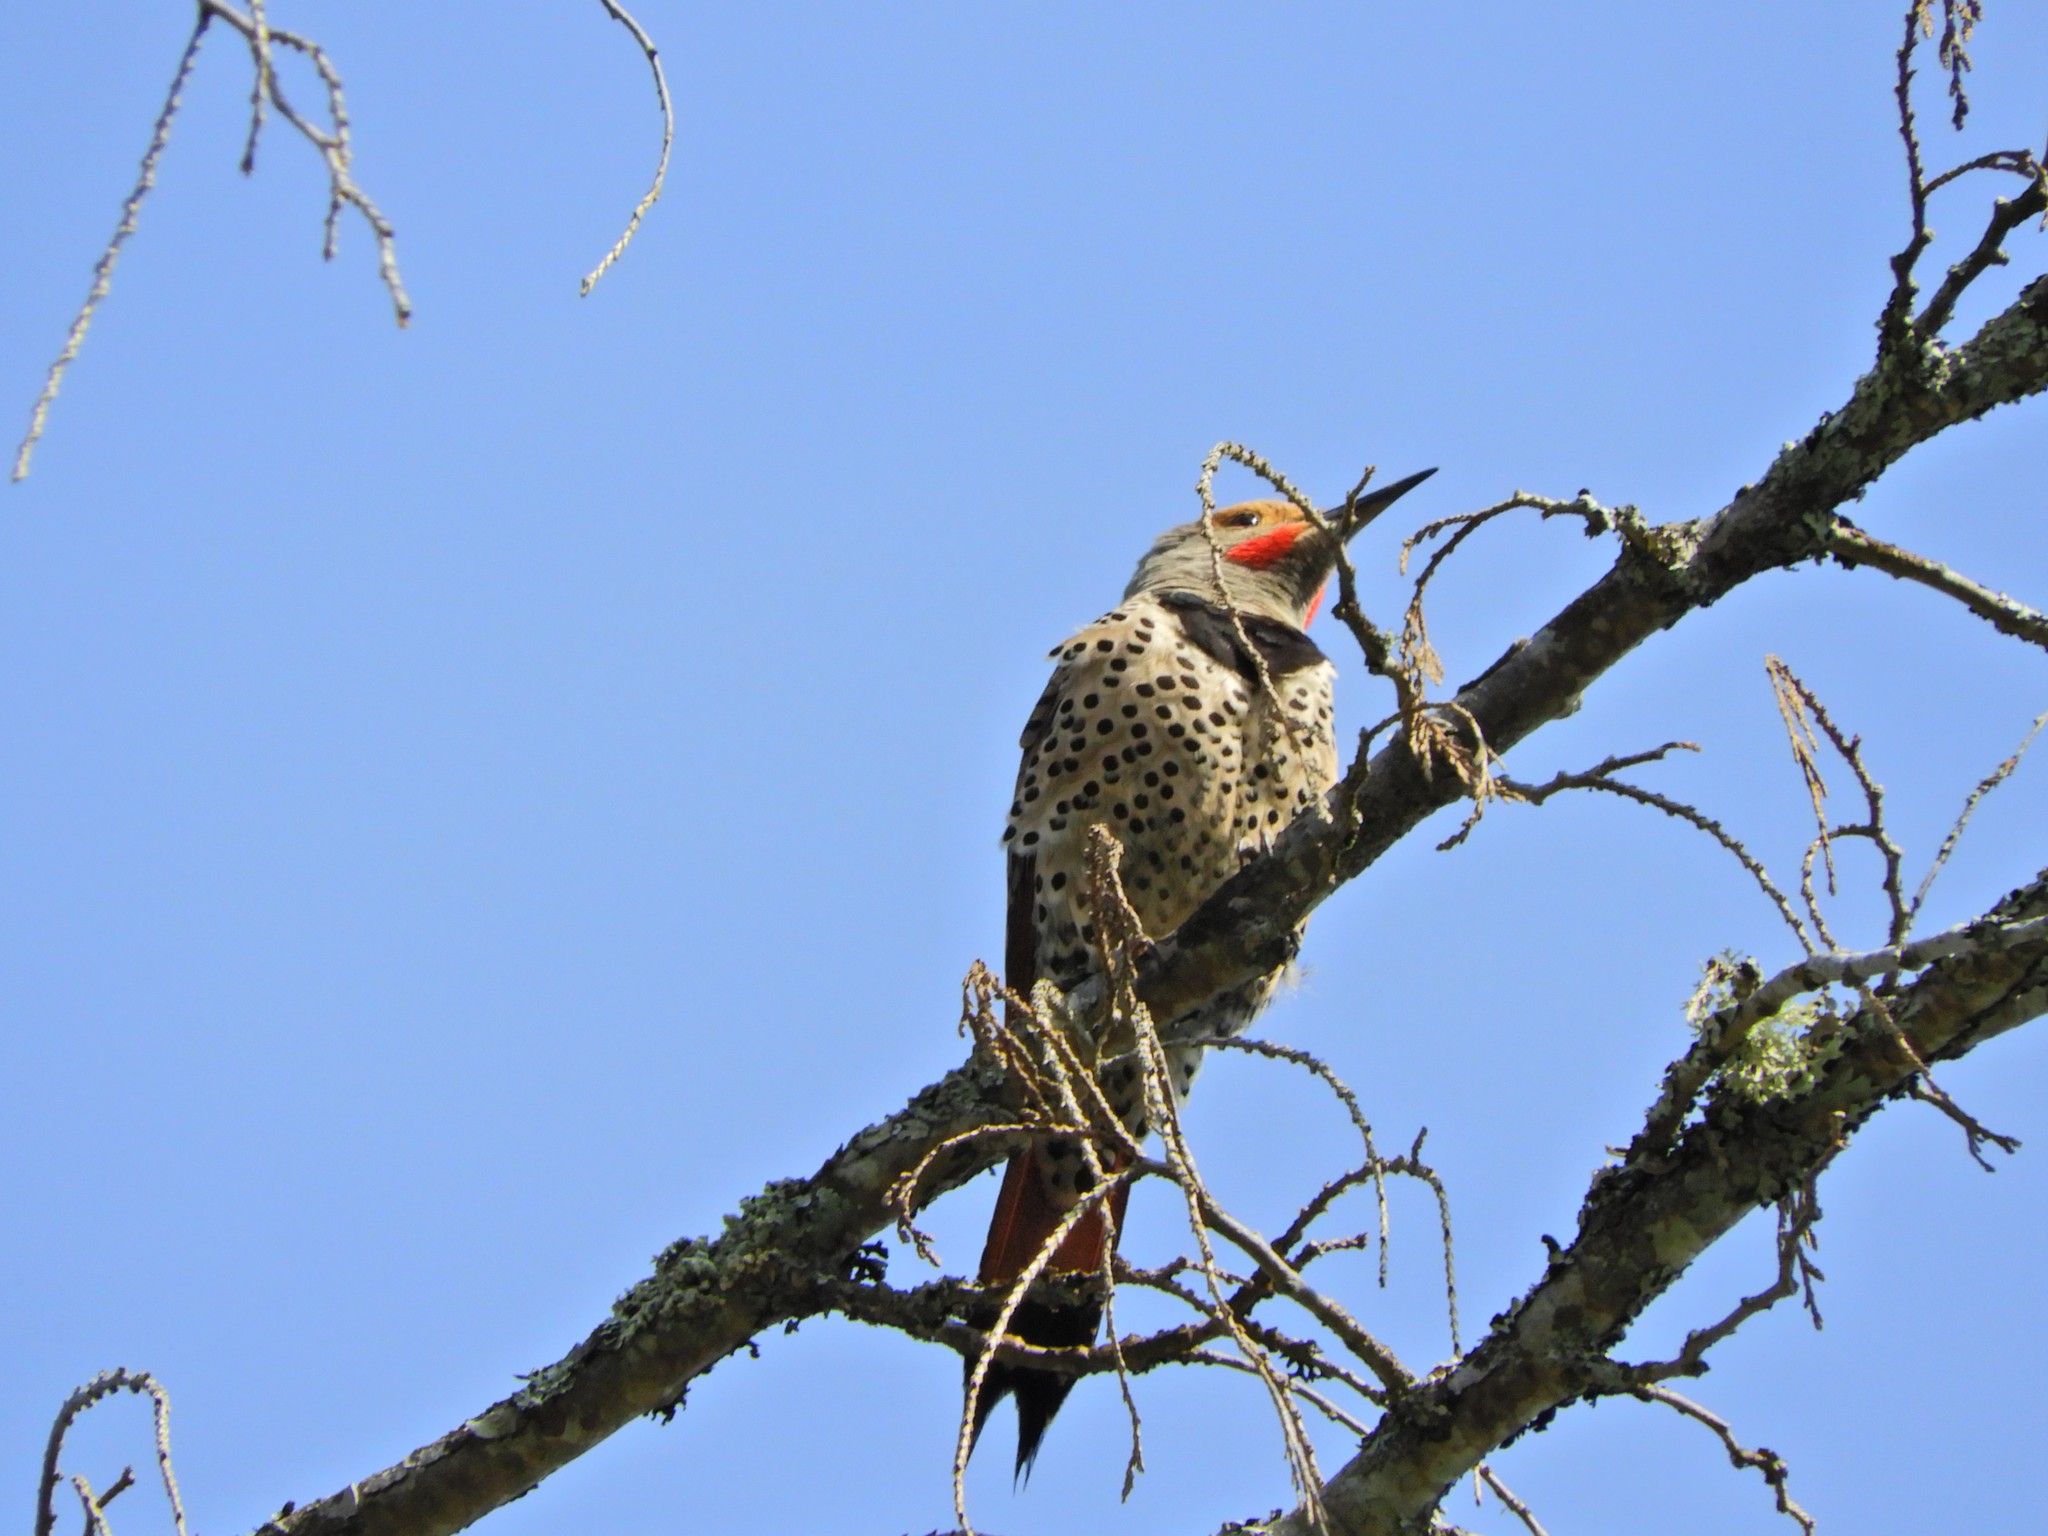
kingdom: Animalia
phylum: Chordata
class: Aves
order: Piciformes
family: Picidae
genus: Colaptes
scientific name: Colaptes auratus
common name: Northern flicker
